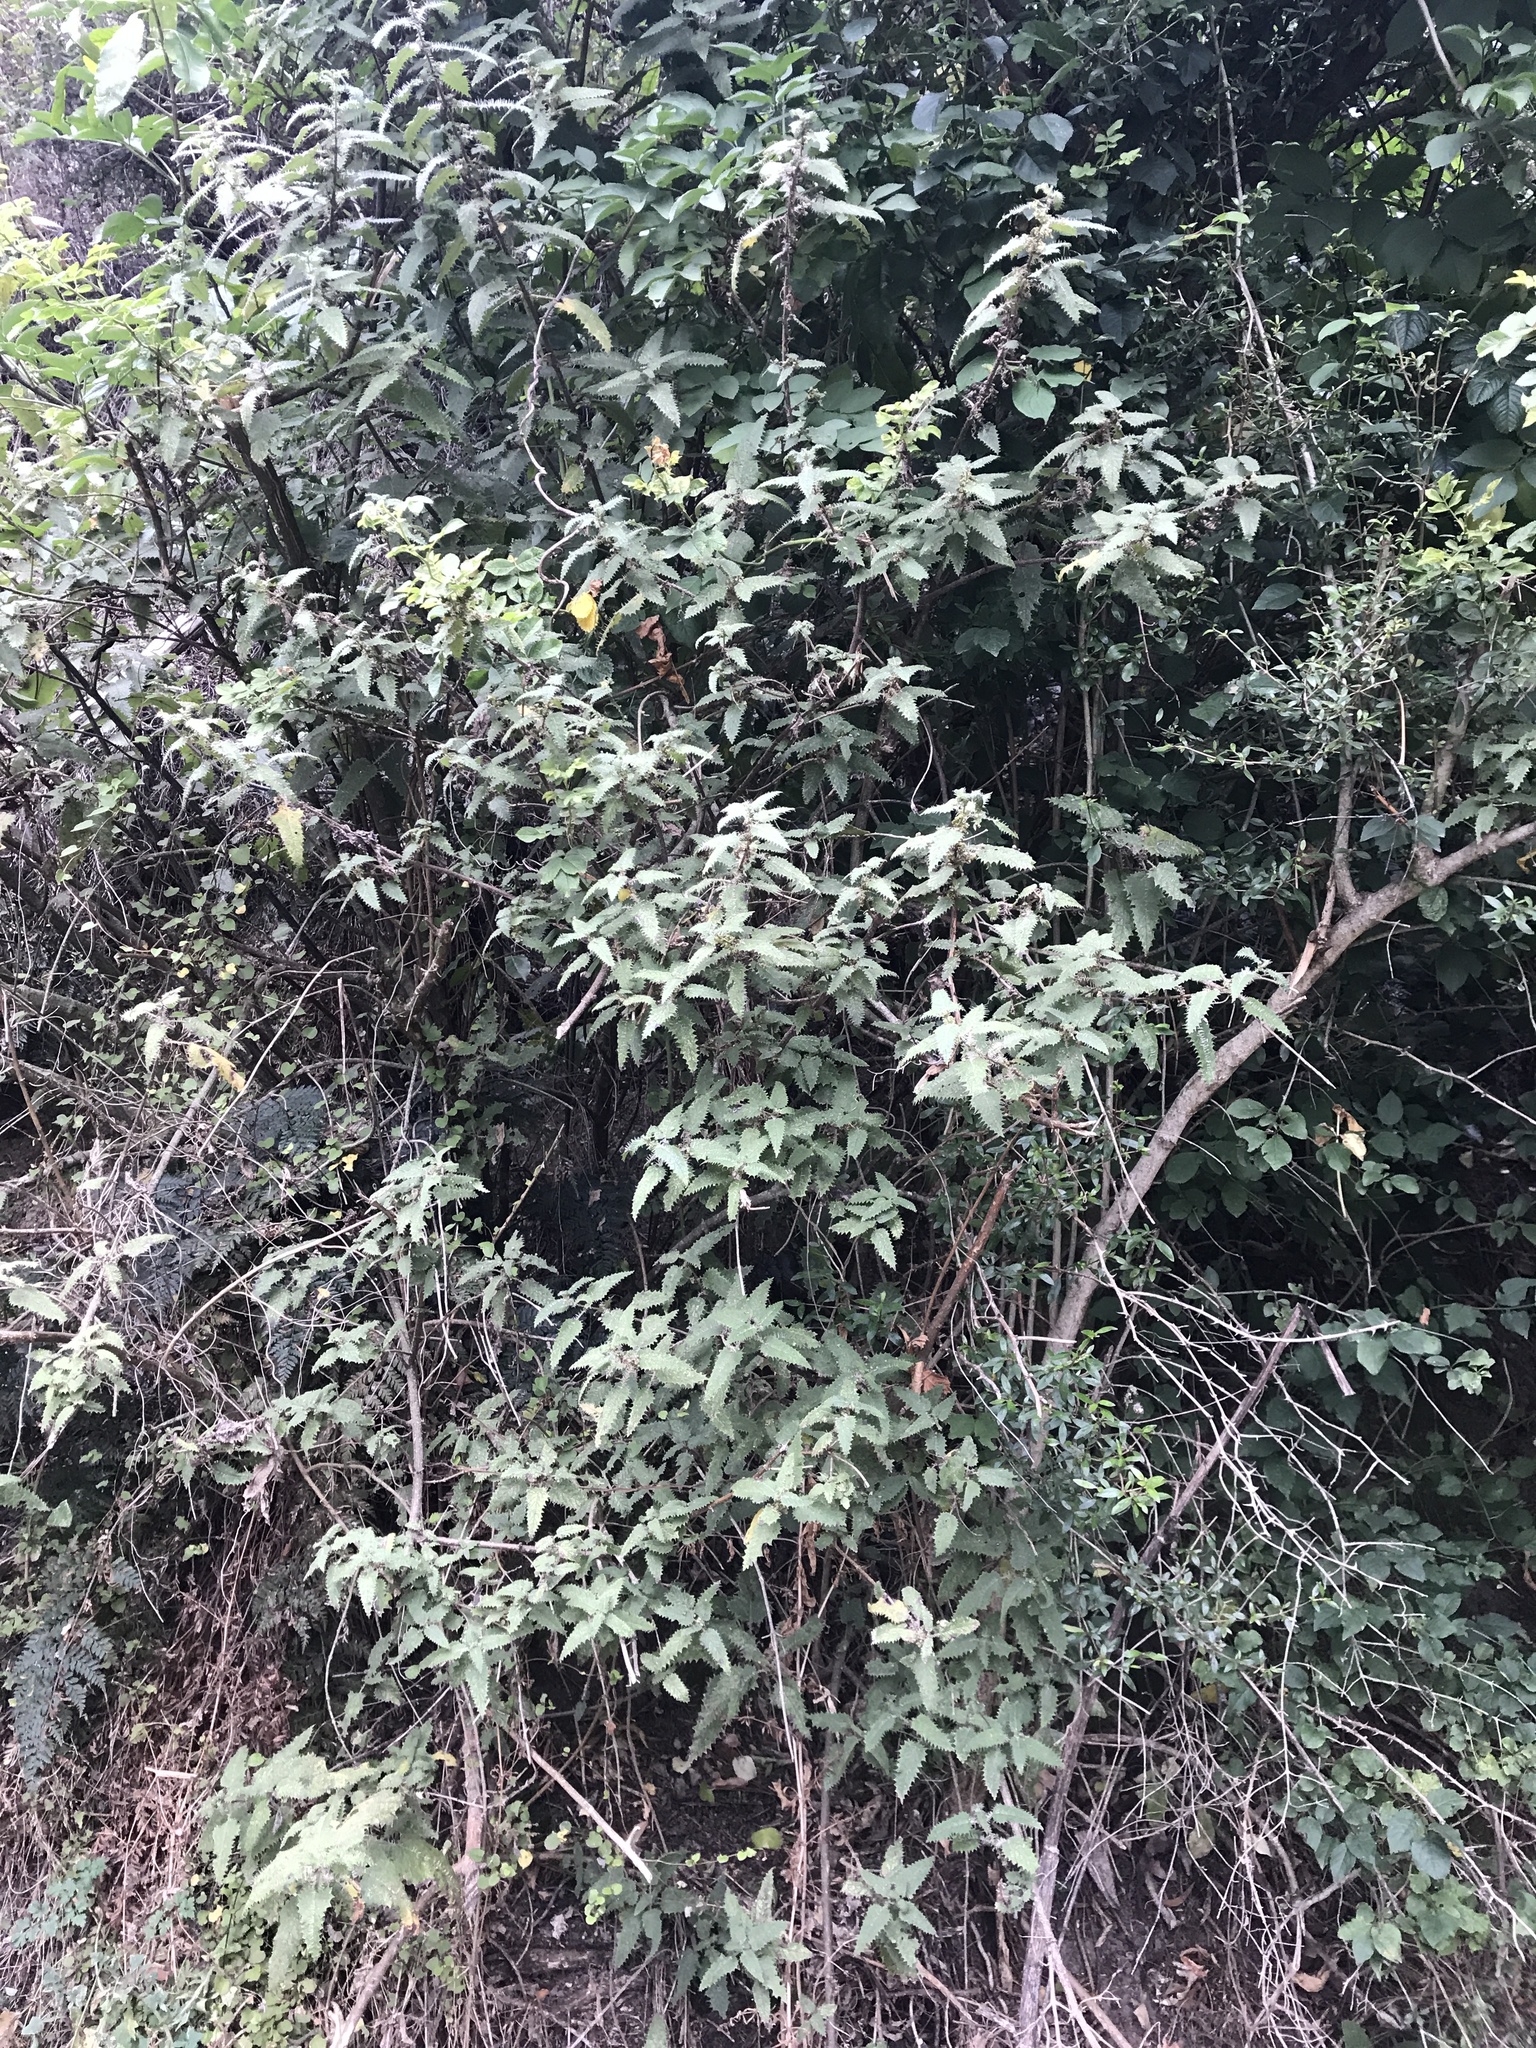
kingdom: Plantae
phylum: Tracheophyta
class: Magnoliopsida
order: Rosales
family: Urticaceae
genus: Urtica
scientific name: Urtica ferox
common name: Tree nettle
